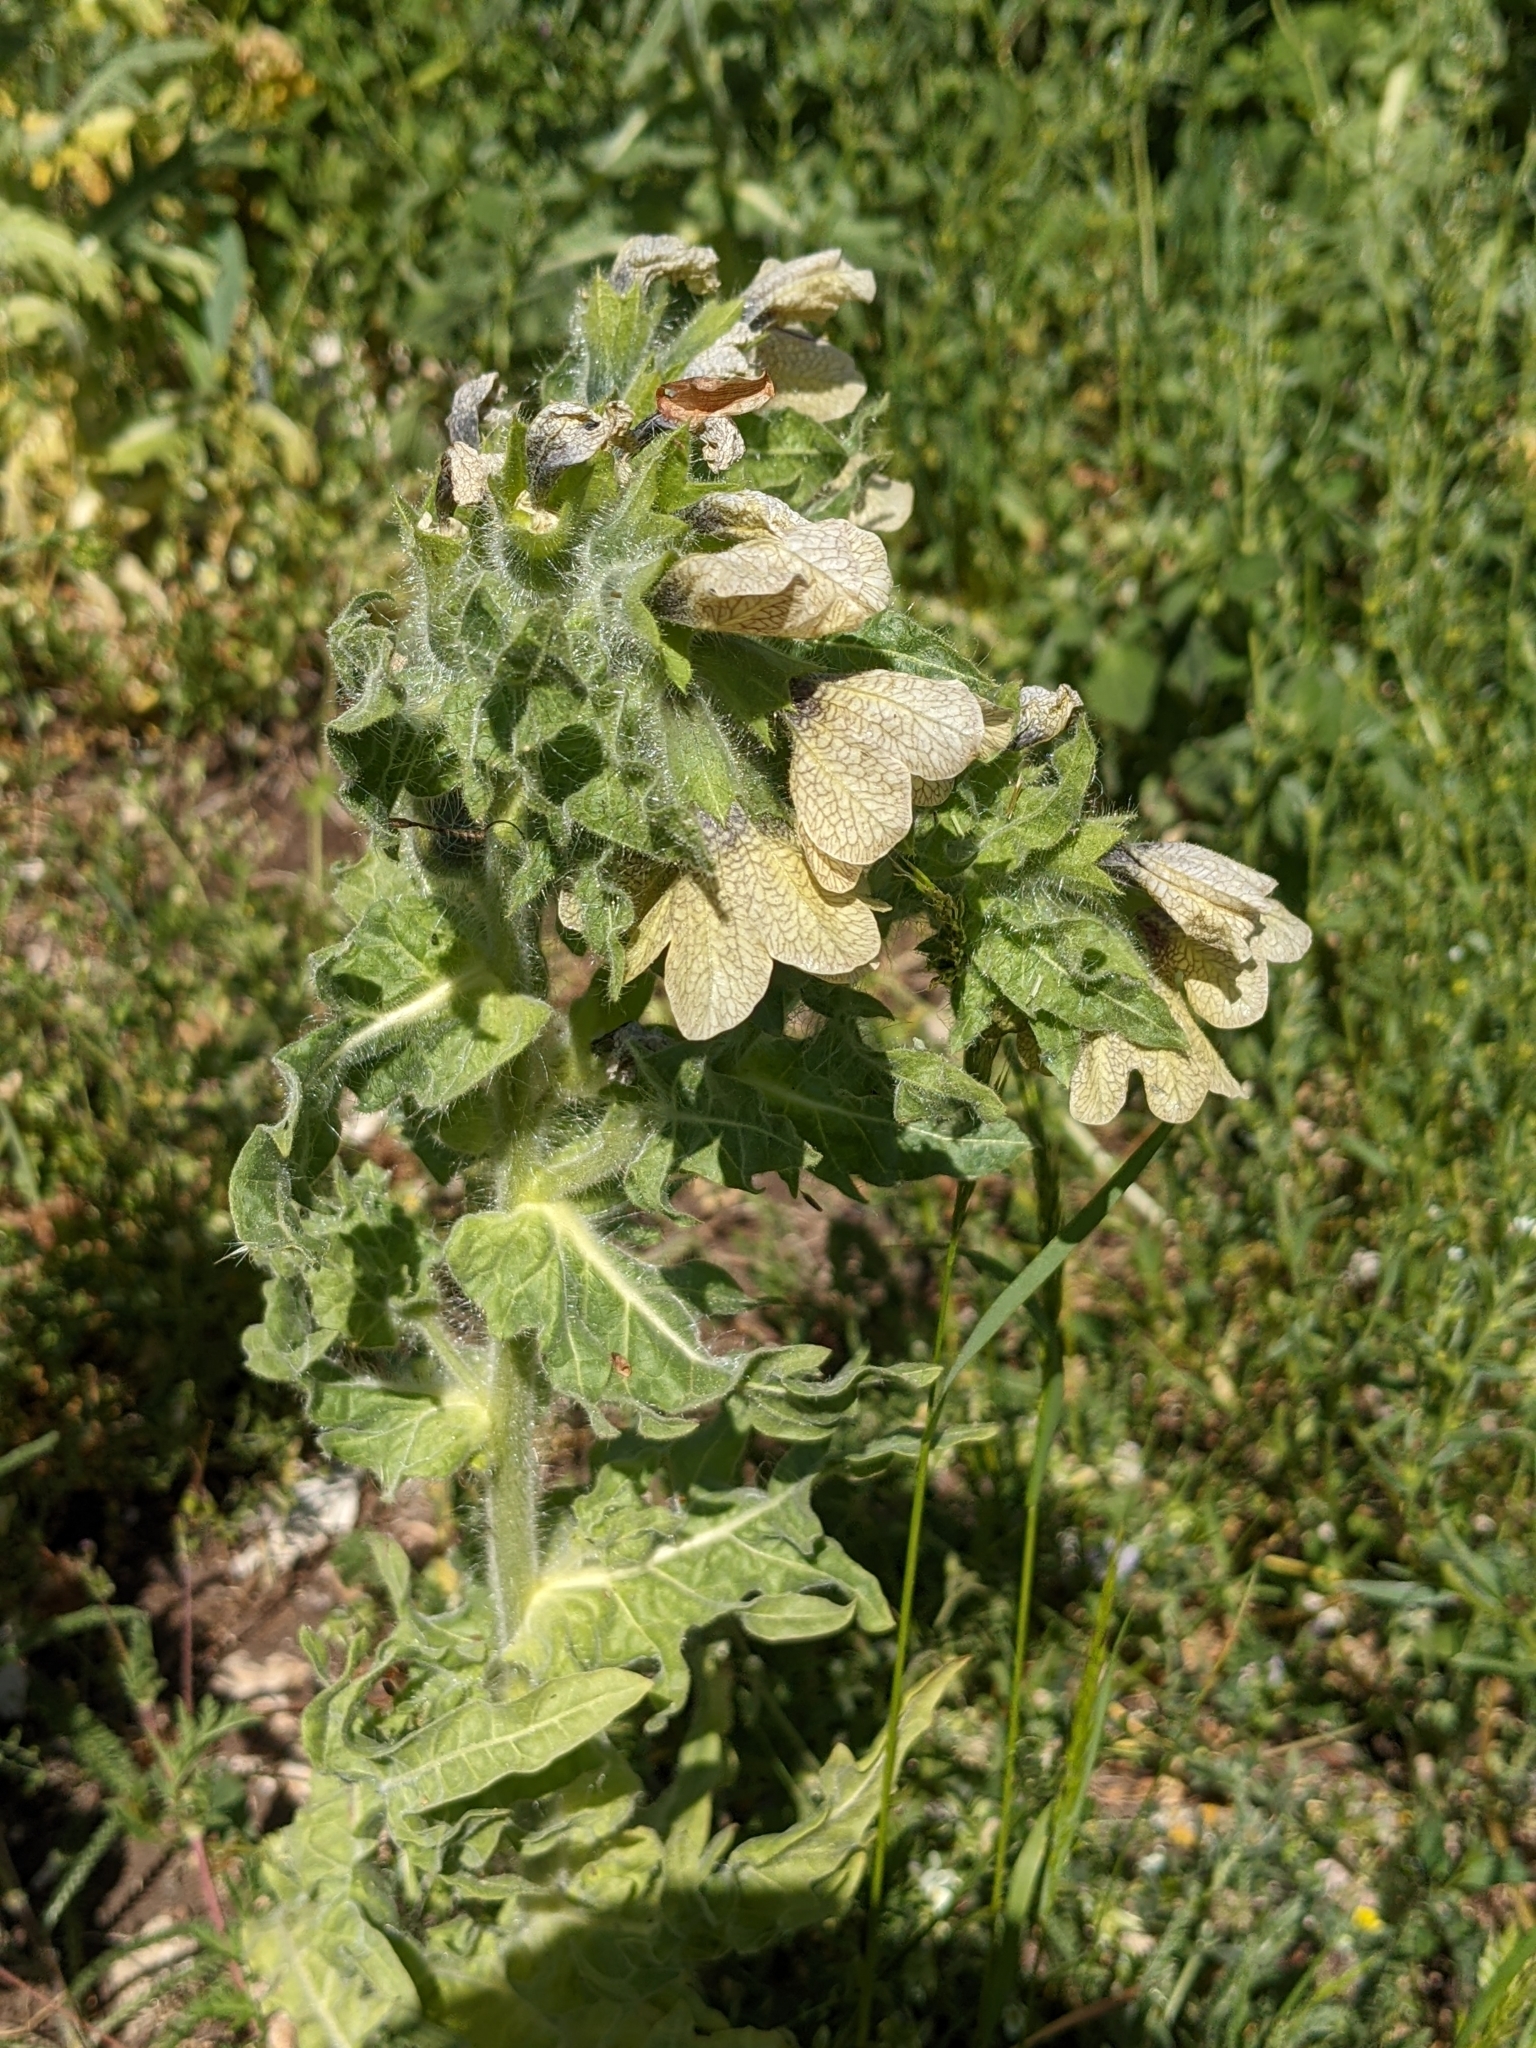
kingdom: Plantae
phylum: Tracheophyta
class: Magnoliopsida
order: Solanales
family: Solanaceae
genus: Hyoscyamus
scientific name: Hyoscyamus niger
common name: Henbane
